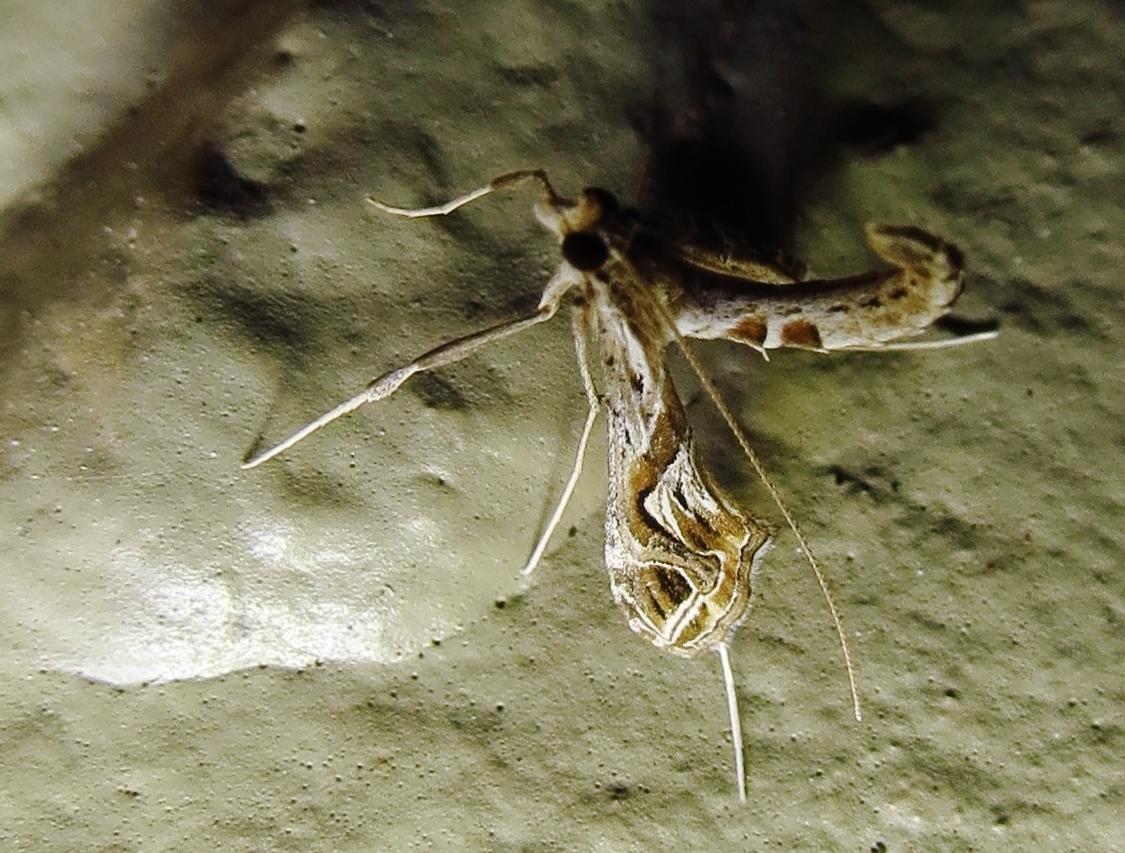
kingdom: Animalia
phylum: Arthropoda
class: Insecta
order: Lepidoptera
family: Crambidae
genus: Lineodes
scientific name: Lineodes integra
